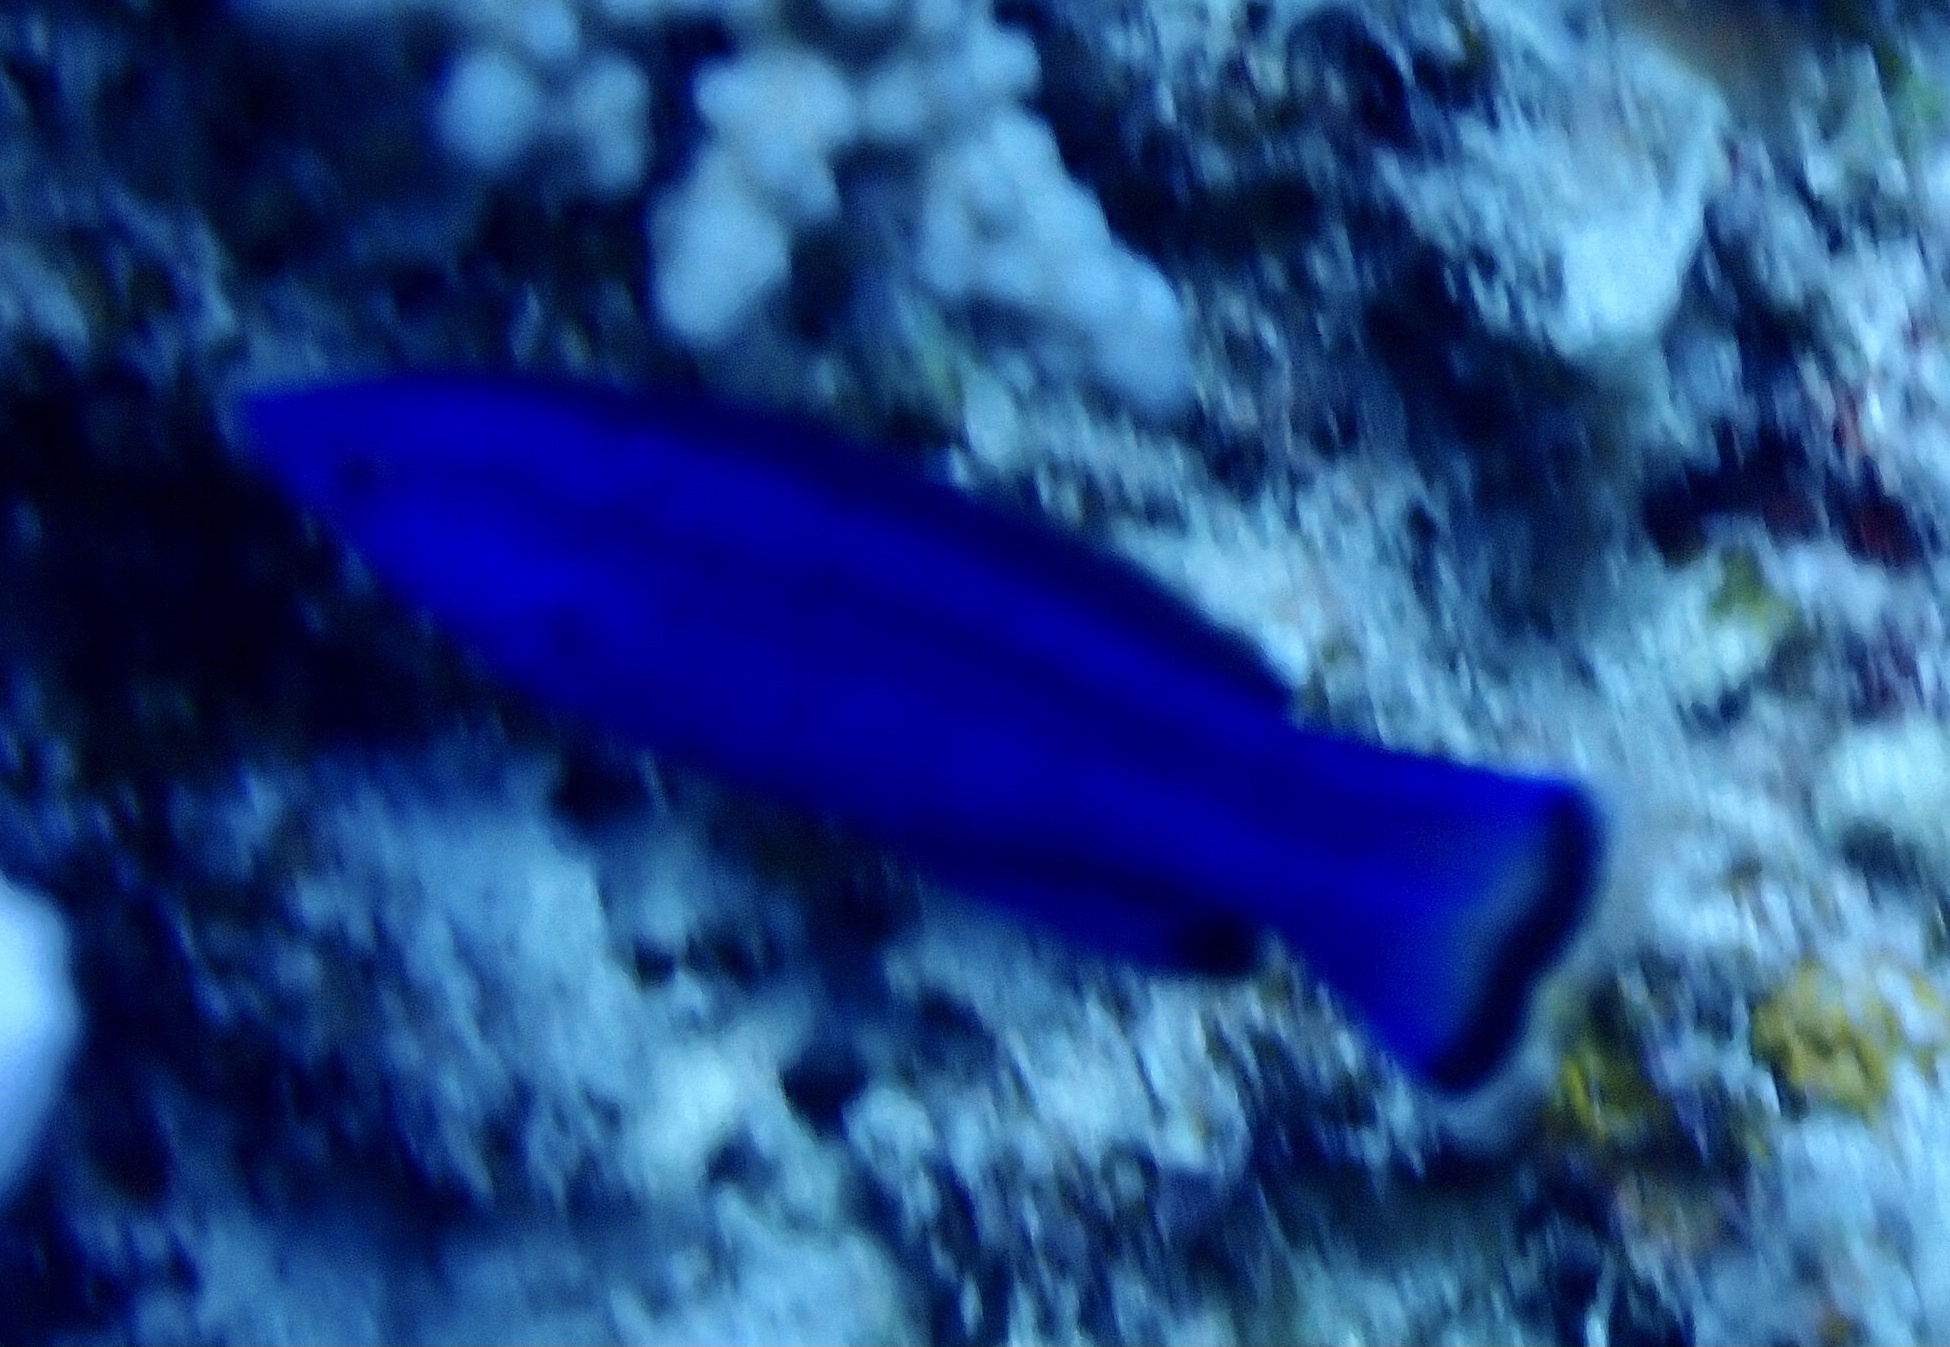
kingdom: Animalia
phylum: Chordata
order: Perciformes
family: Labridae
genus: Larabicus
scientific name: Larabicus quadrilineatus
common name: Fourline wrasse
